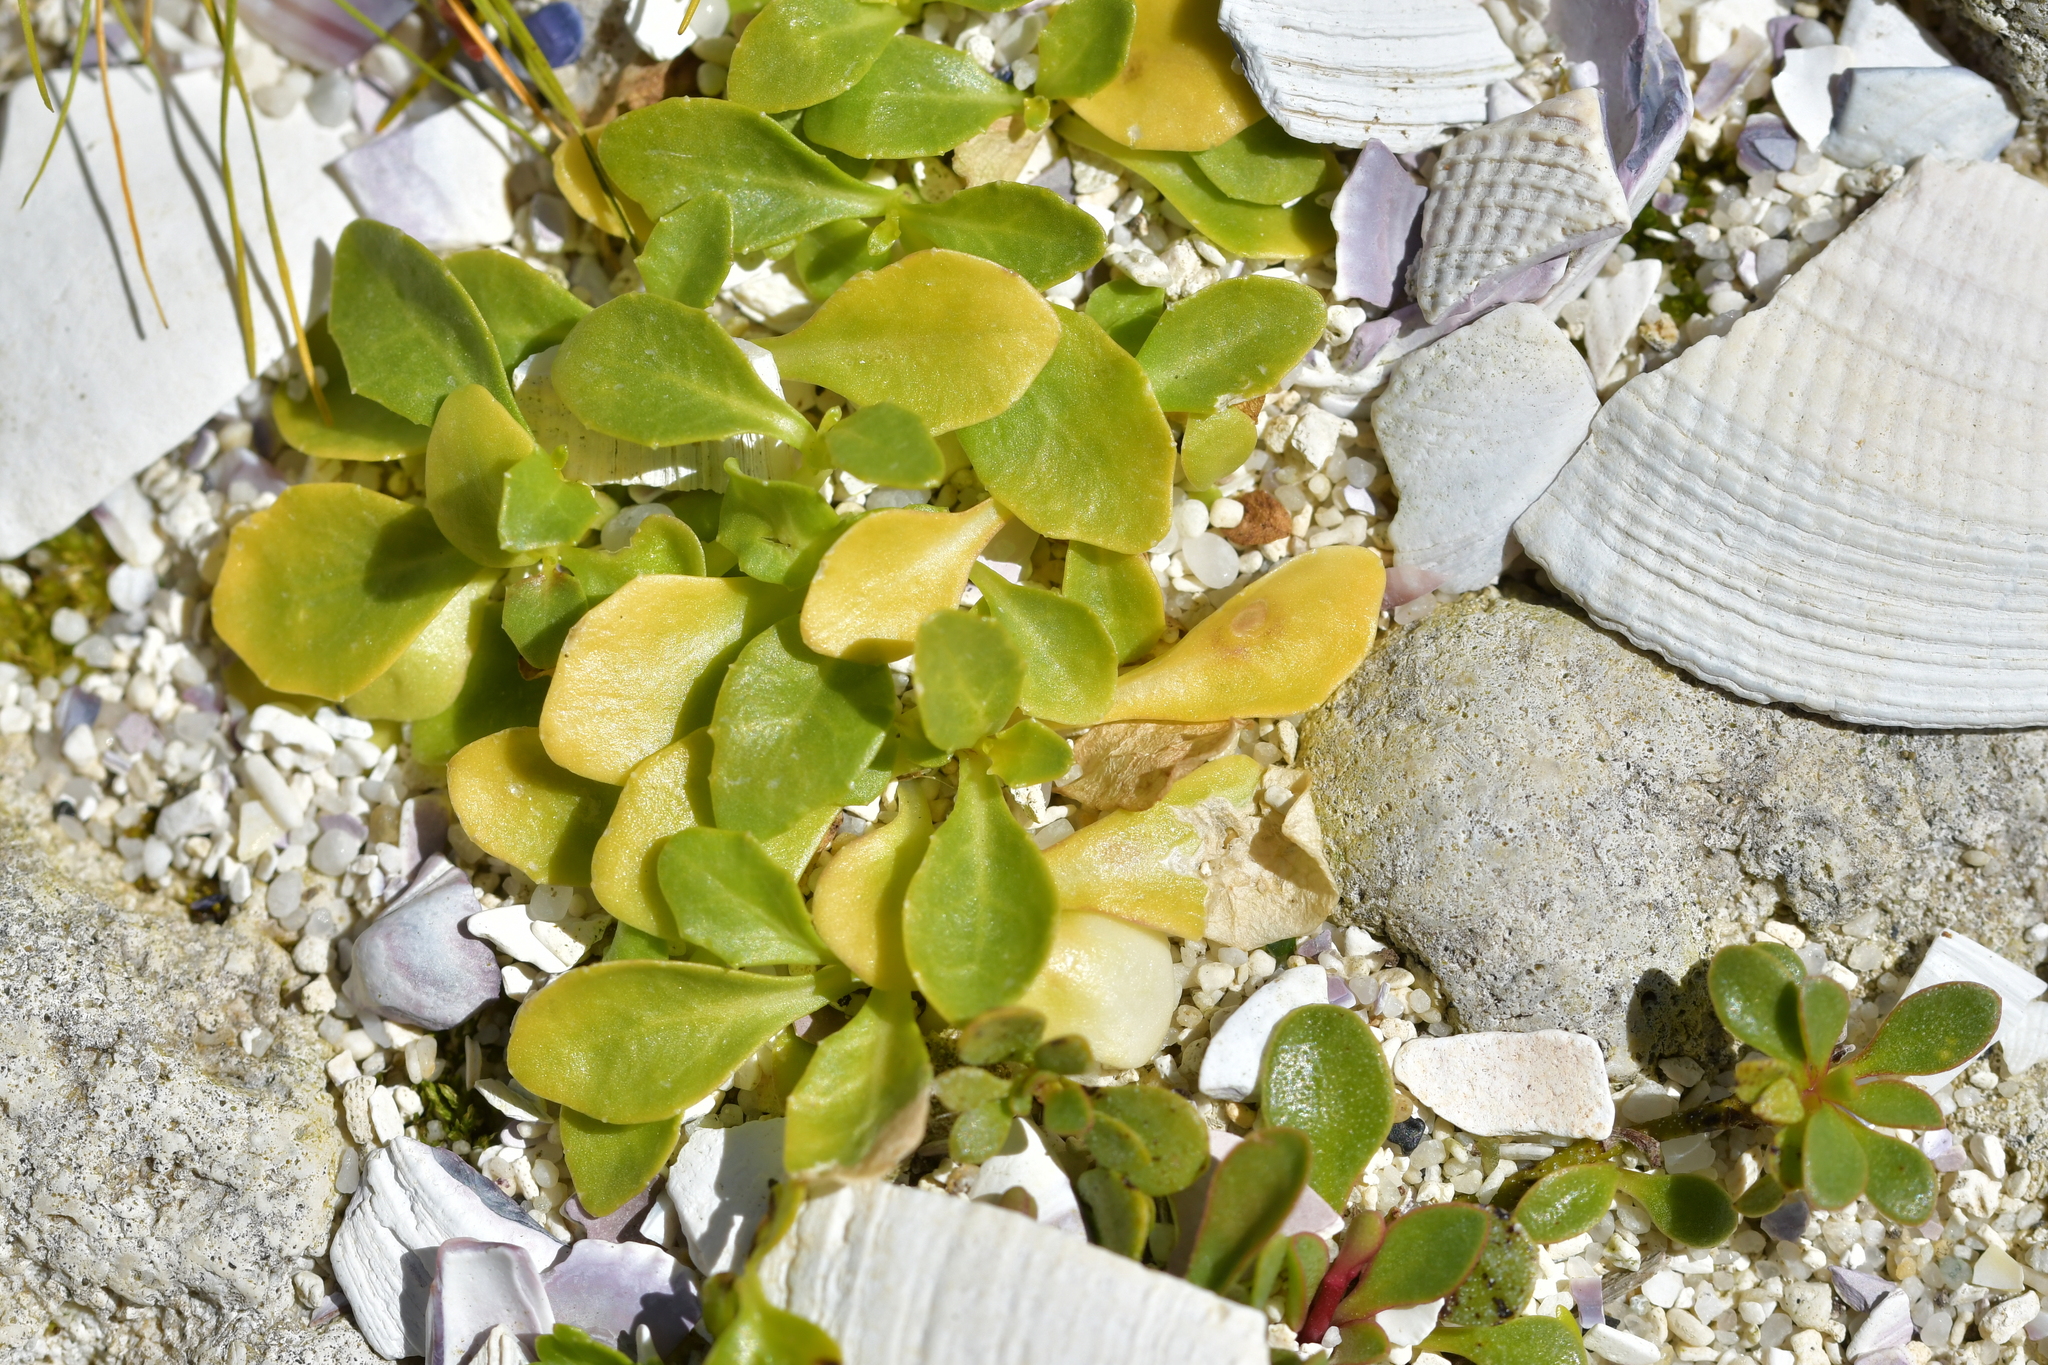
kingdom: Plantae
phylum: Tracheophyta
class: Magnoliopsida
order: Asterales
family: Campanulaceae
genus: Lobelia
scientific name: Lobelia anceps
